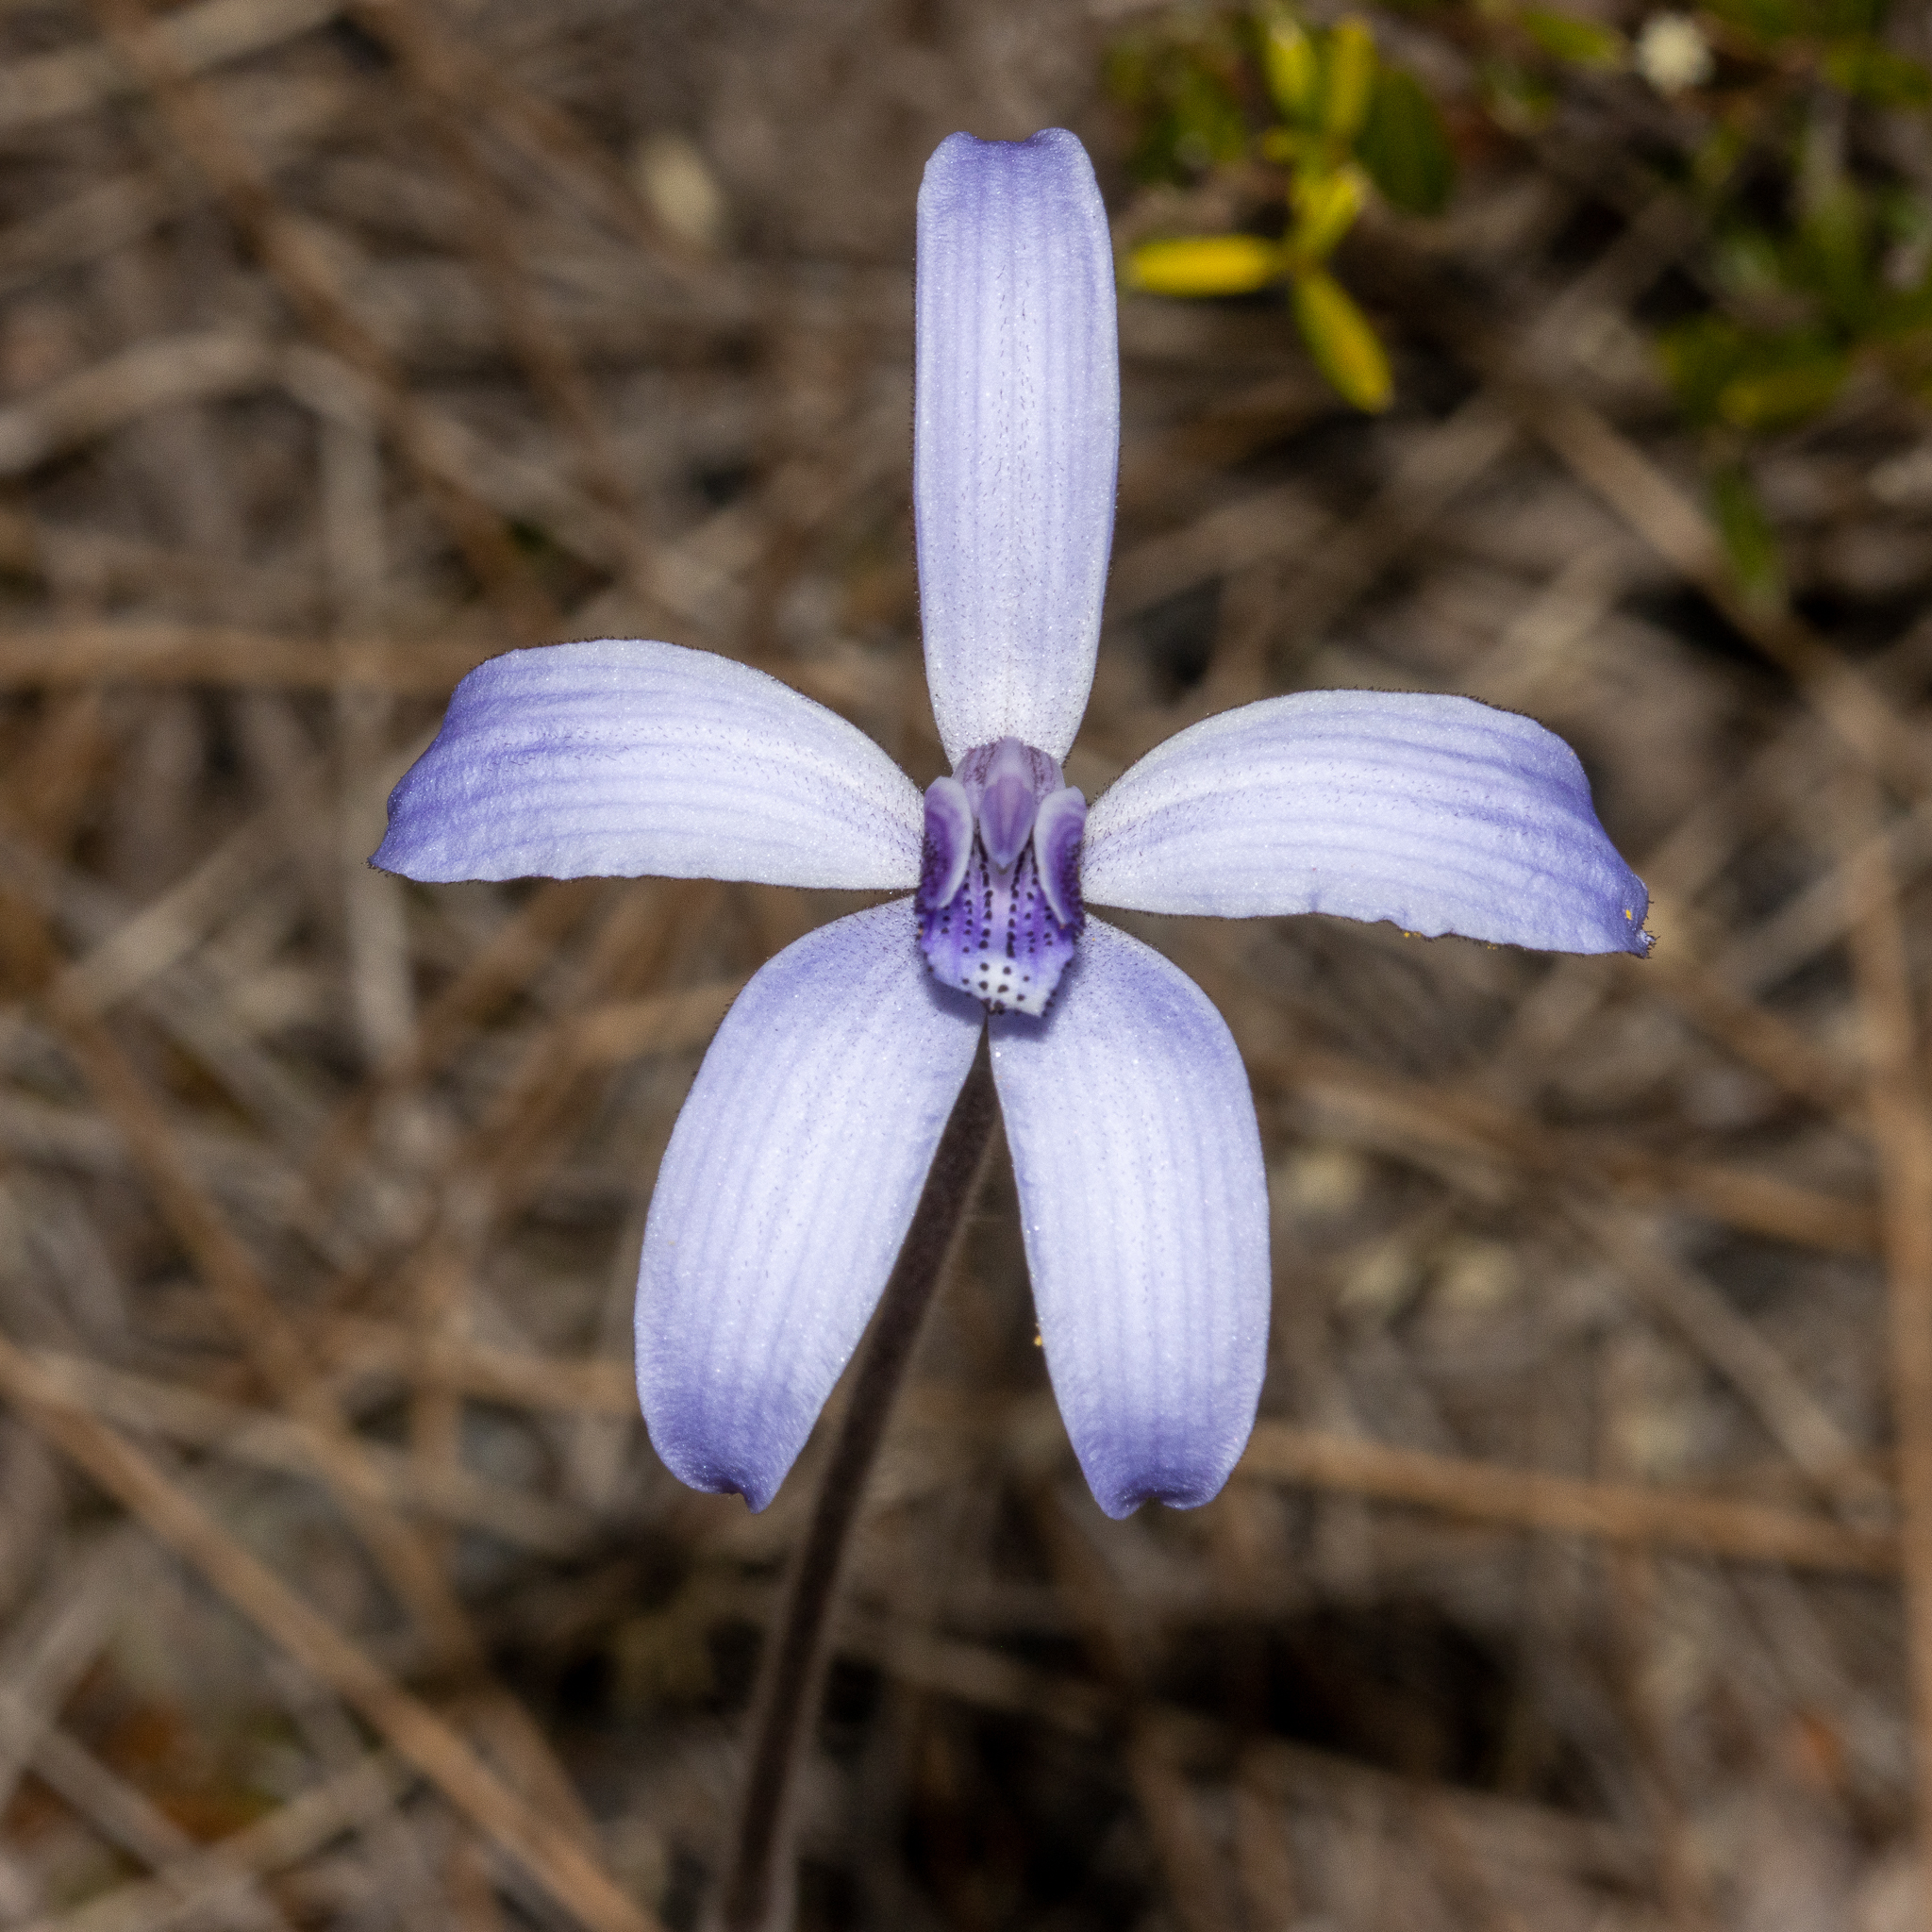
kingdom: Plantae
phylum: Tracheophyta
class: Liliopsida
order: Asparagales
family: Orchidaceae
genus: Caladenia
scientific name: Caladenia sericea
